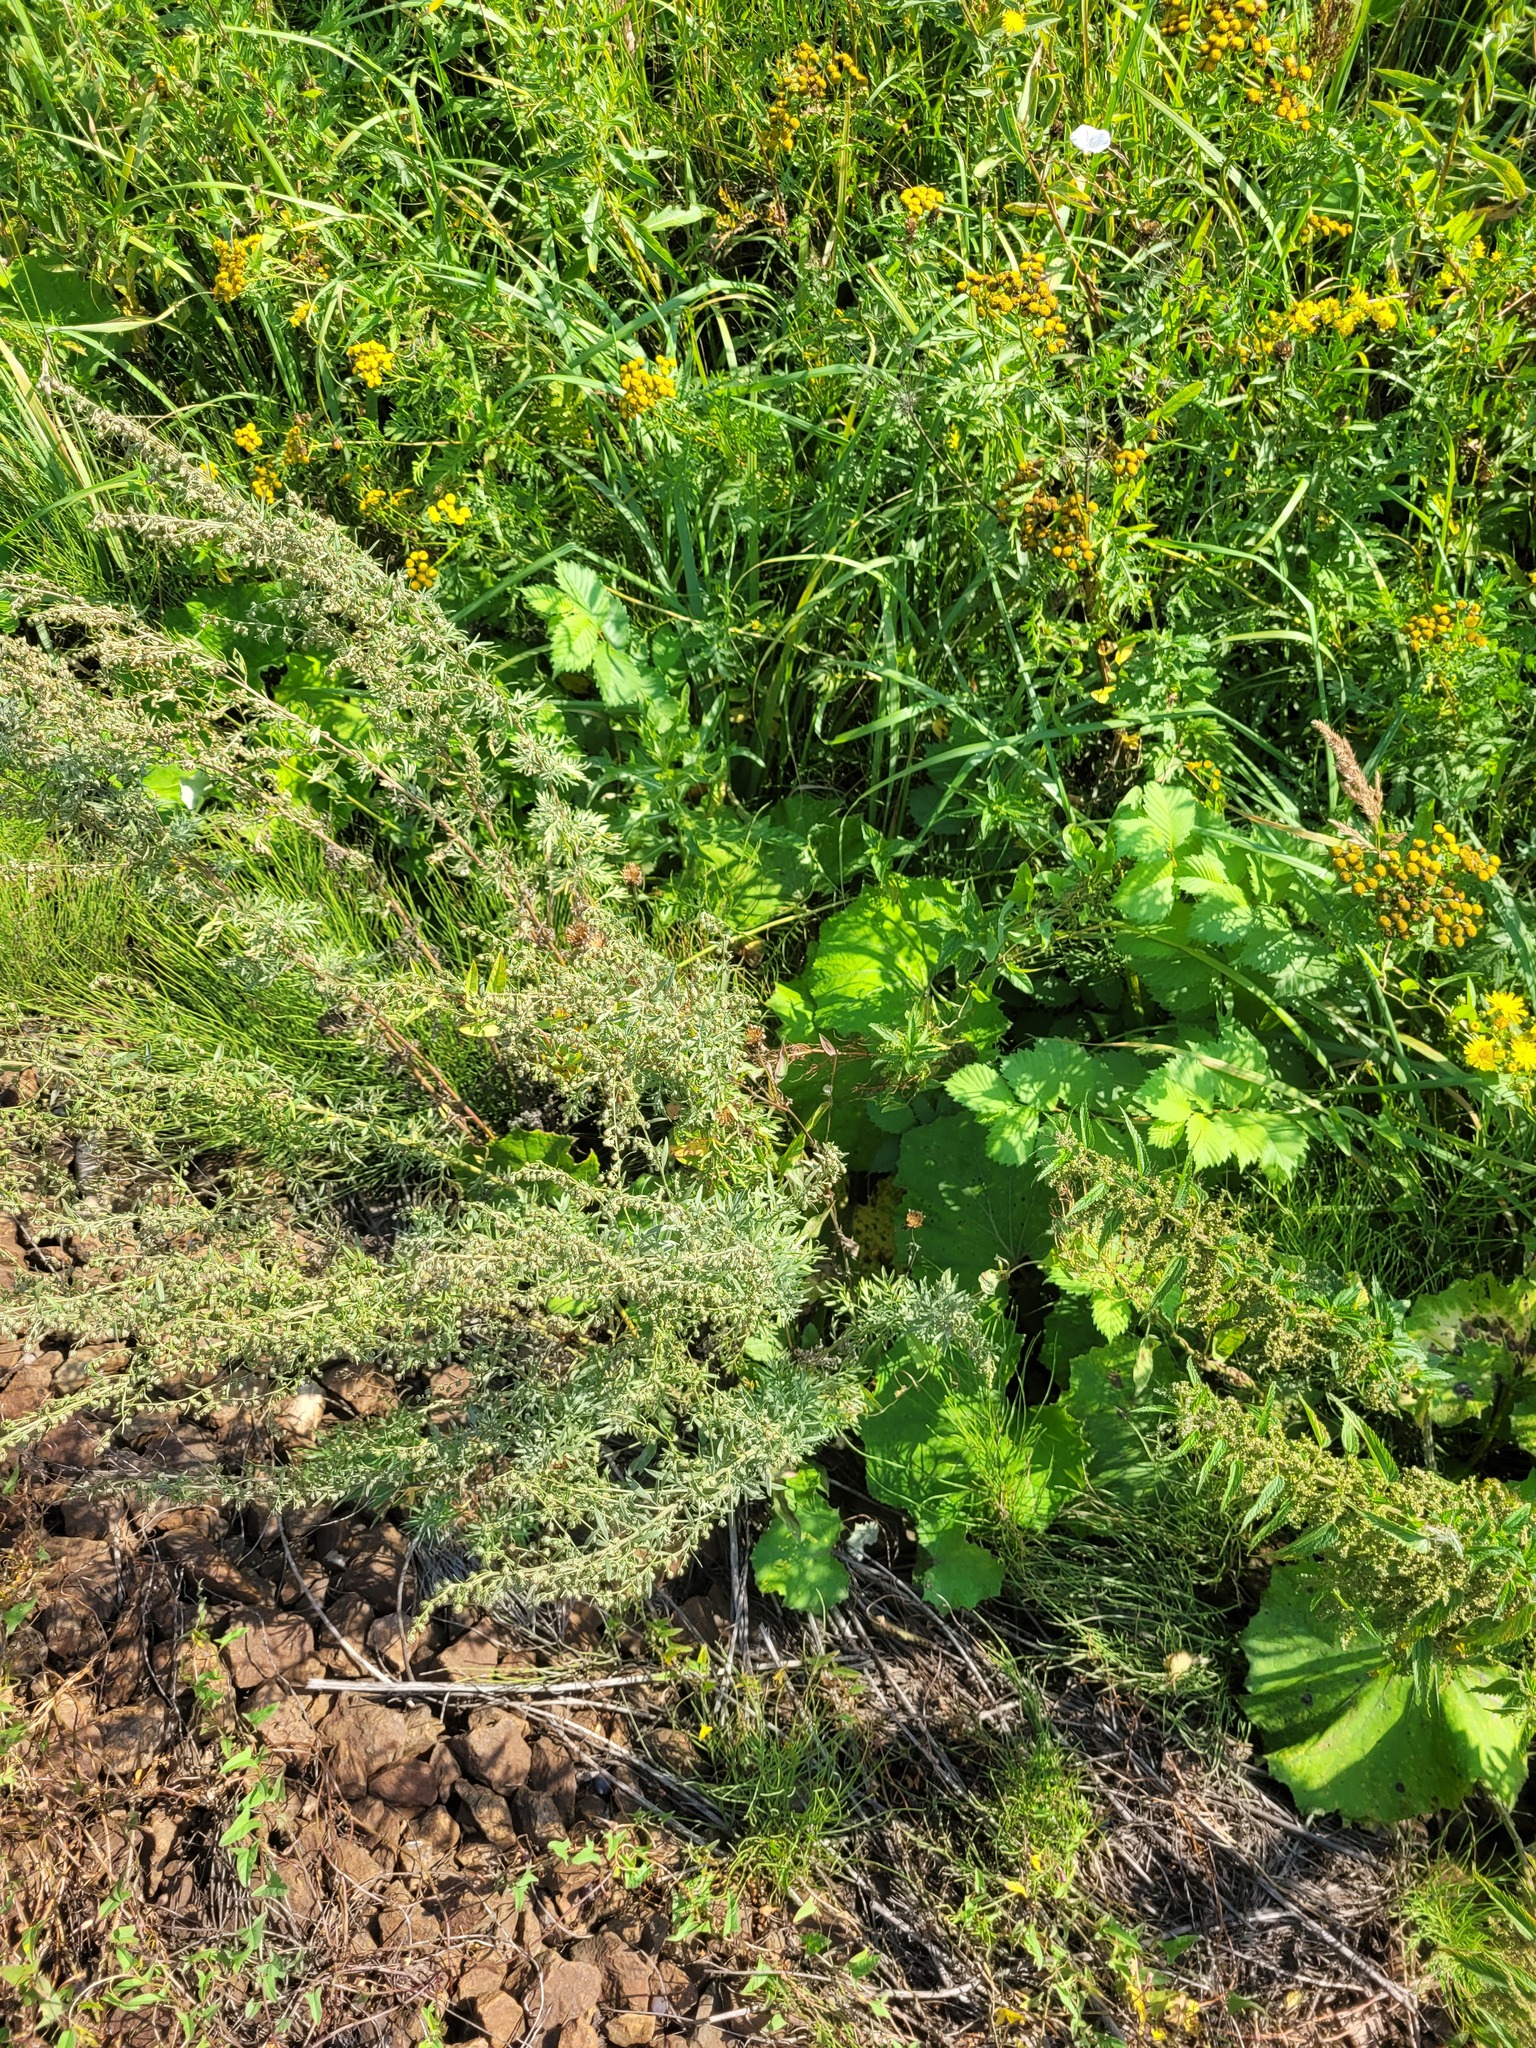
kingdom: Plantae
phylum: Tracheophyta
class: Magnoliopsida
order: Asterales
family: Asteraceae
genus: Artemisia
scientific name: Artemisia absinthium
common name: Wormwood
